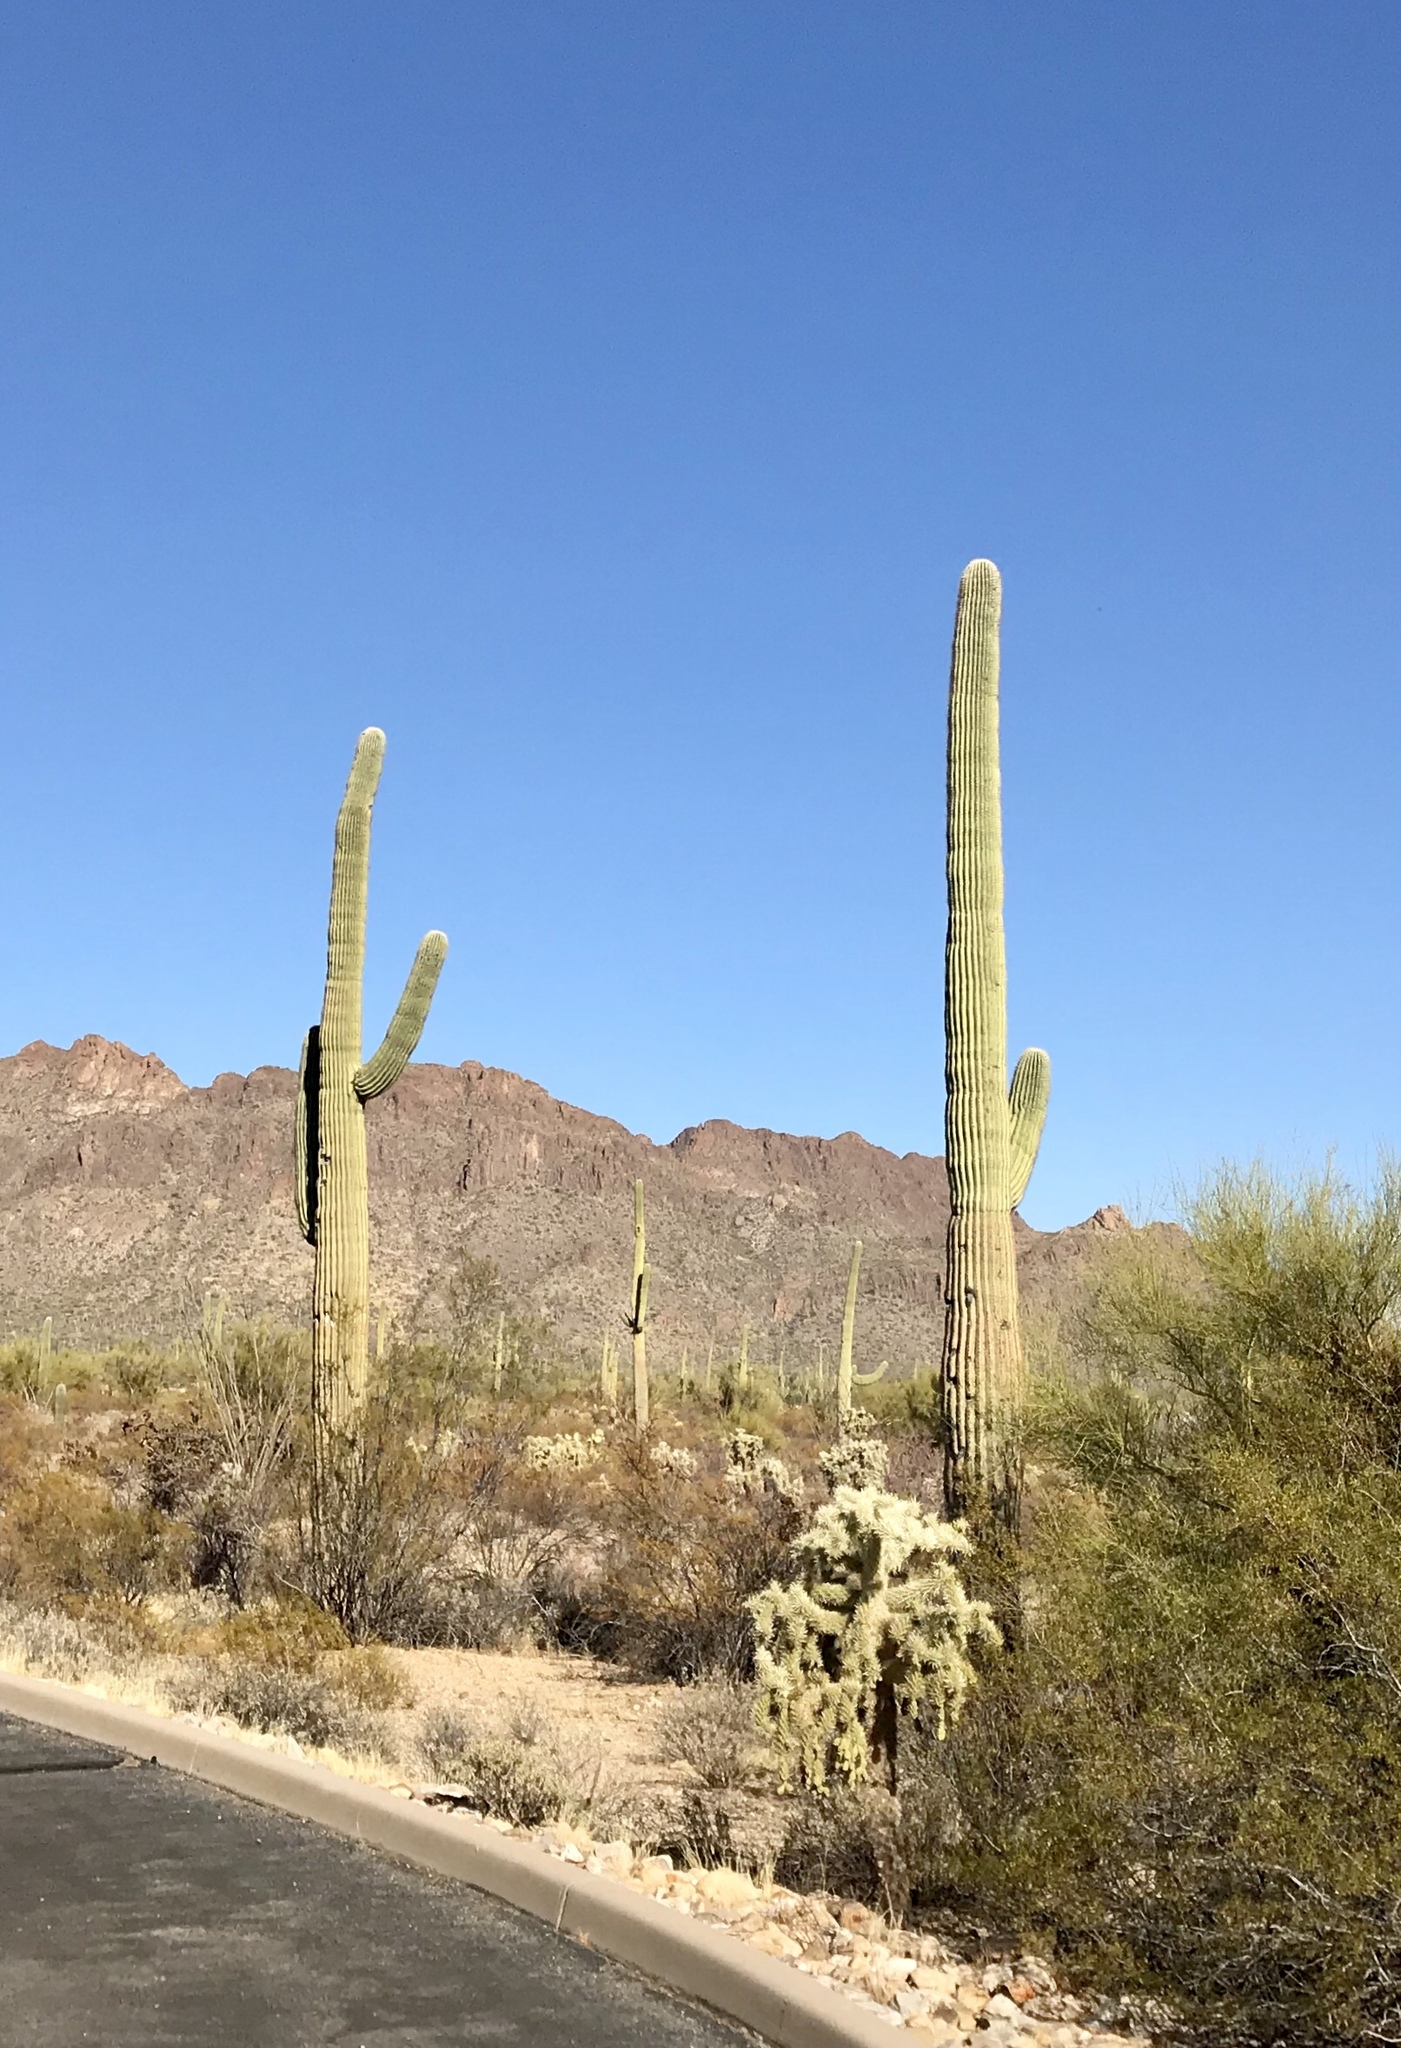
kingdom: Plantae
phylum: Tracheophyta
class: Magnoliopsida
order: Caryophyllales
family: Cactaceae
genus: Carnegiea
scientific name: Carnegiea gigantea
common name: Saguaro
